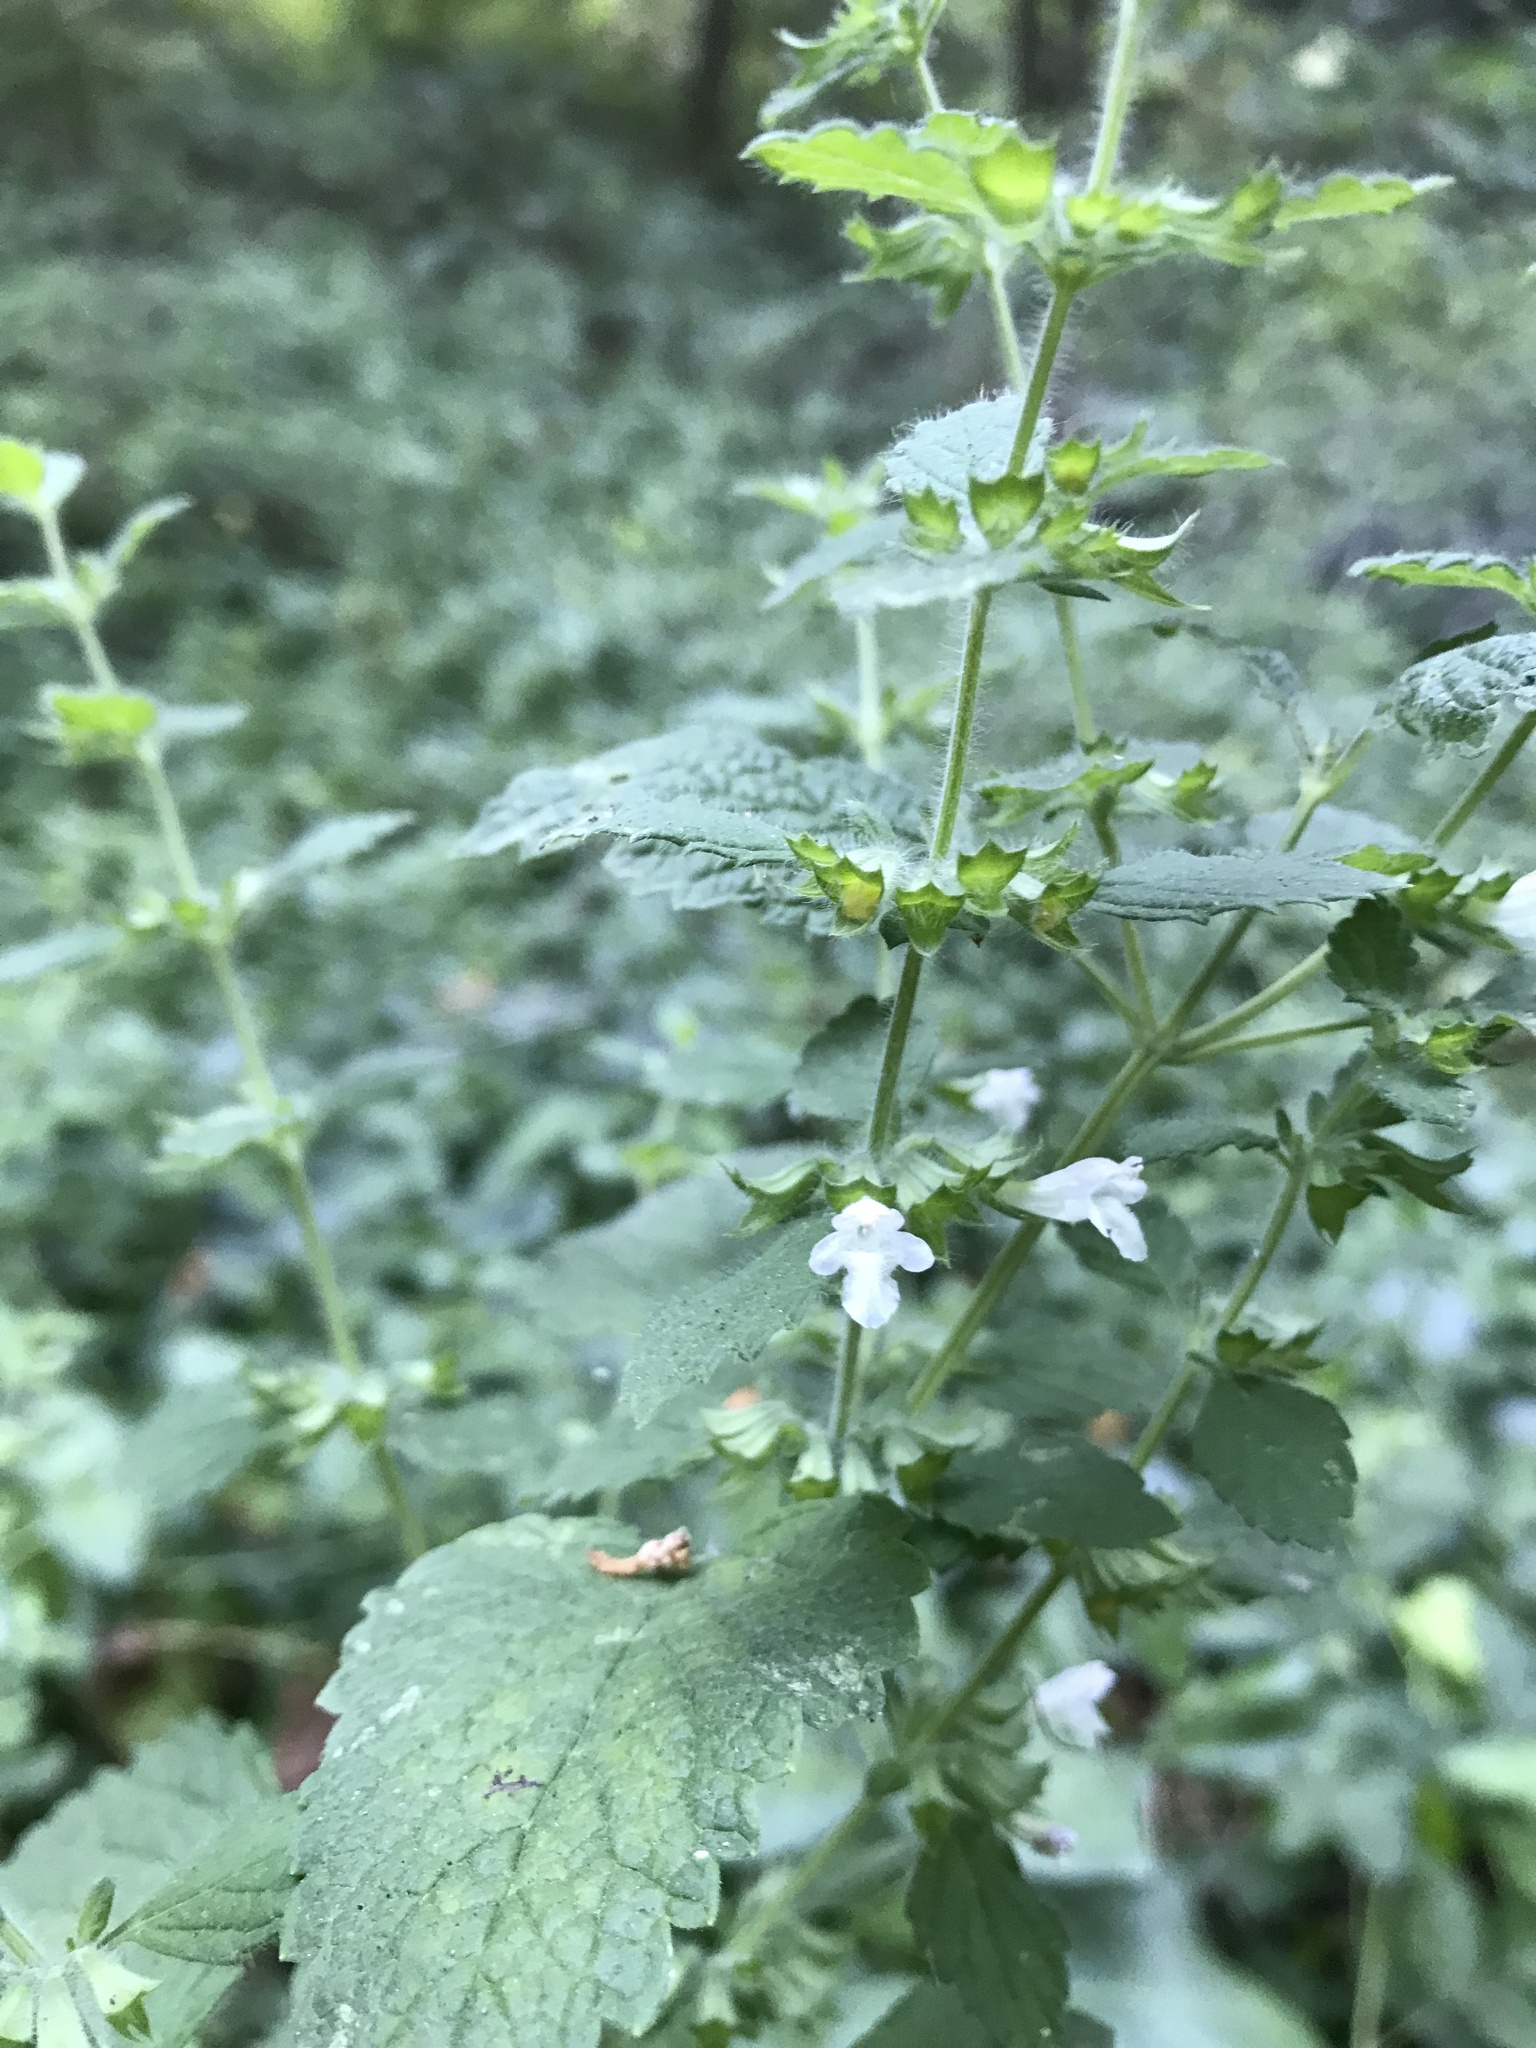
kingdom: Plantae
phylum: Tracheophyta
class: Magnoliopsida
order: Lamiales
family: Lamiaceae
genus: Melissa
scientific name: Melissa officinalis
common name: Balm
